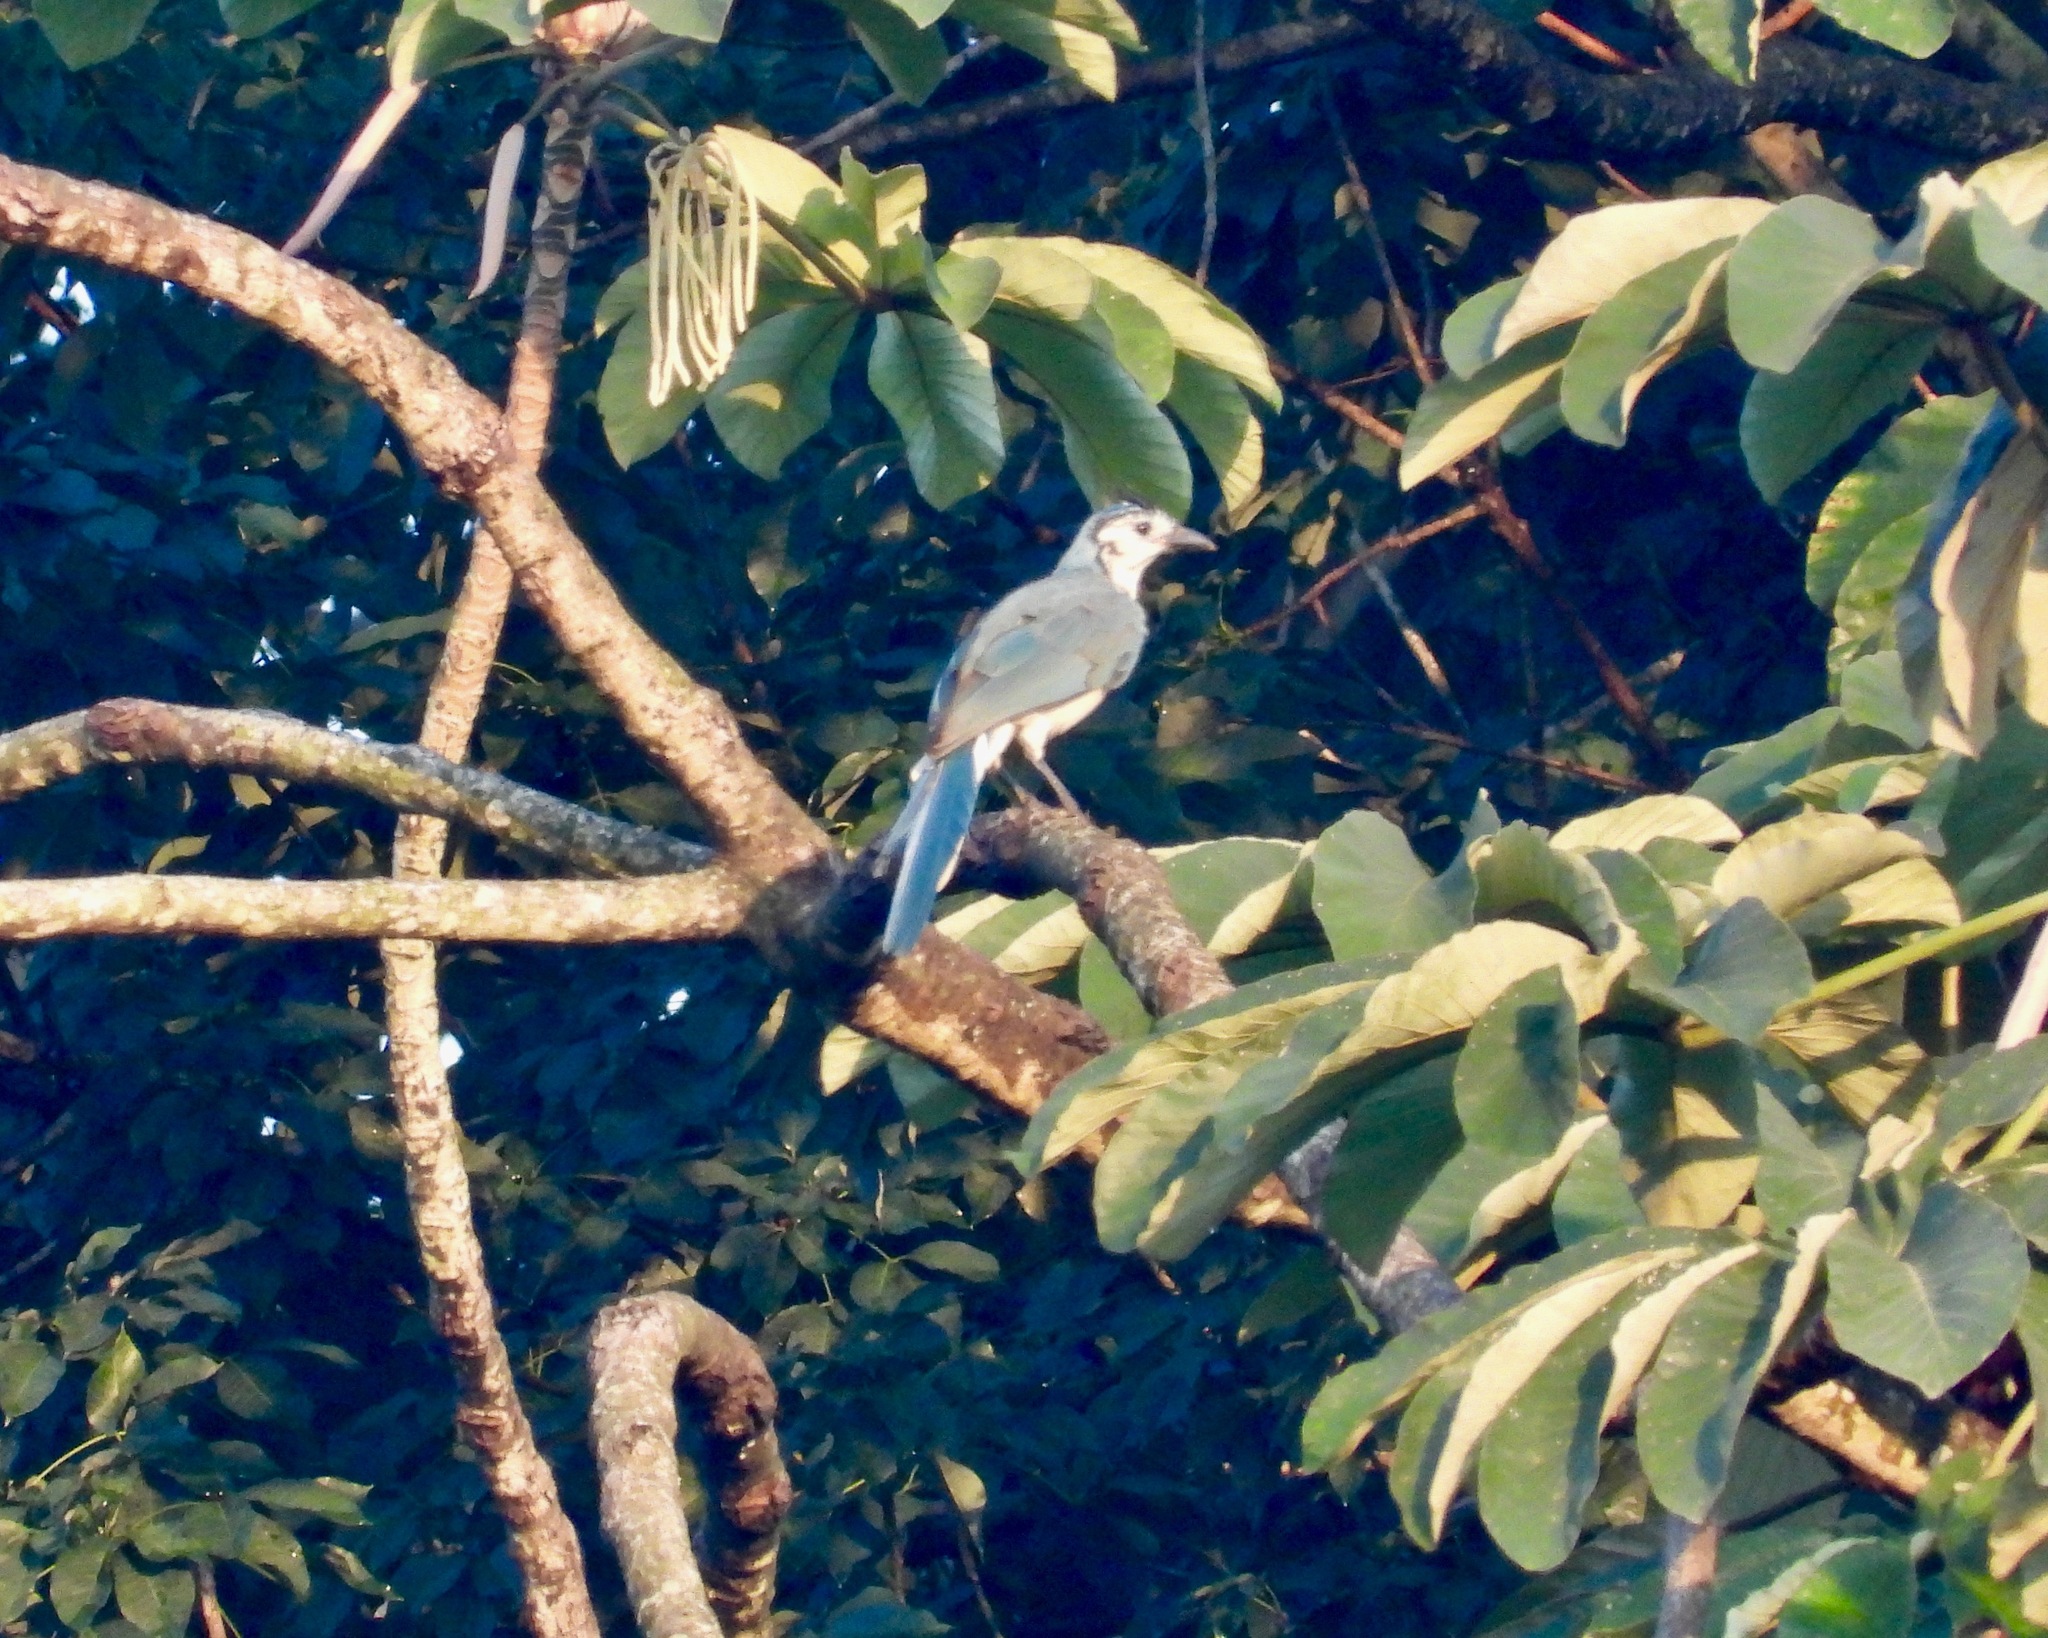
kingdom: Animalia
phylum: Chordata
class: Aves
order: Passeriformes
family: Corvidae
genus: Calocitta
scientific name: Calocitta formosa
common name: White-throated magpie-jay
